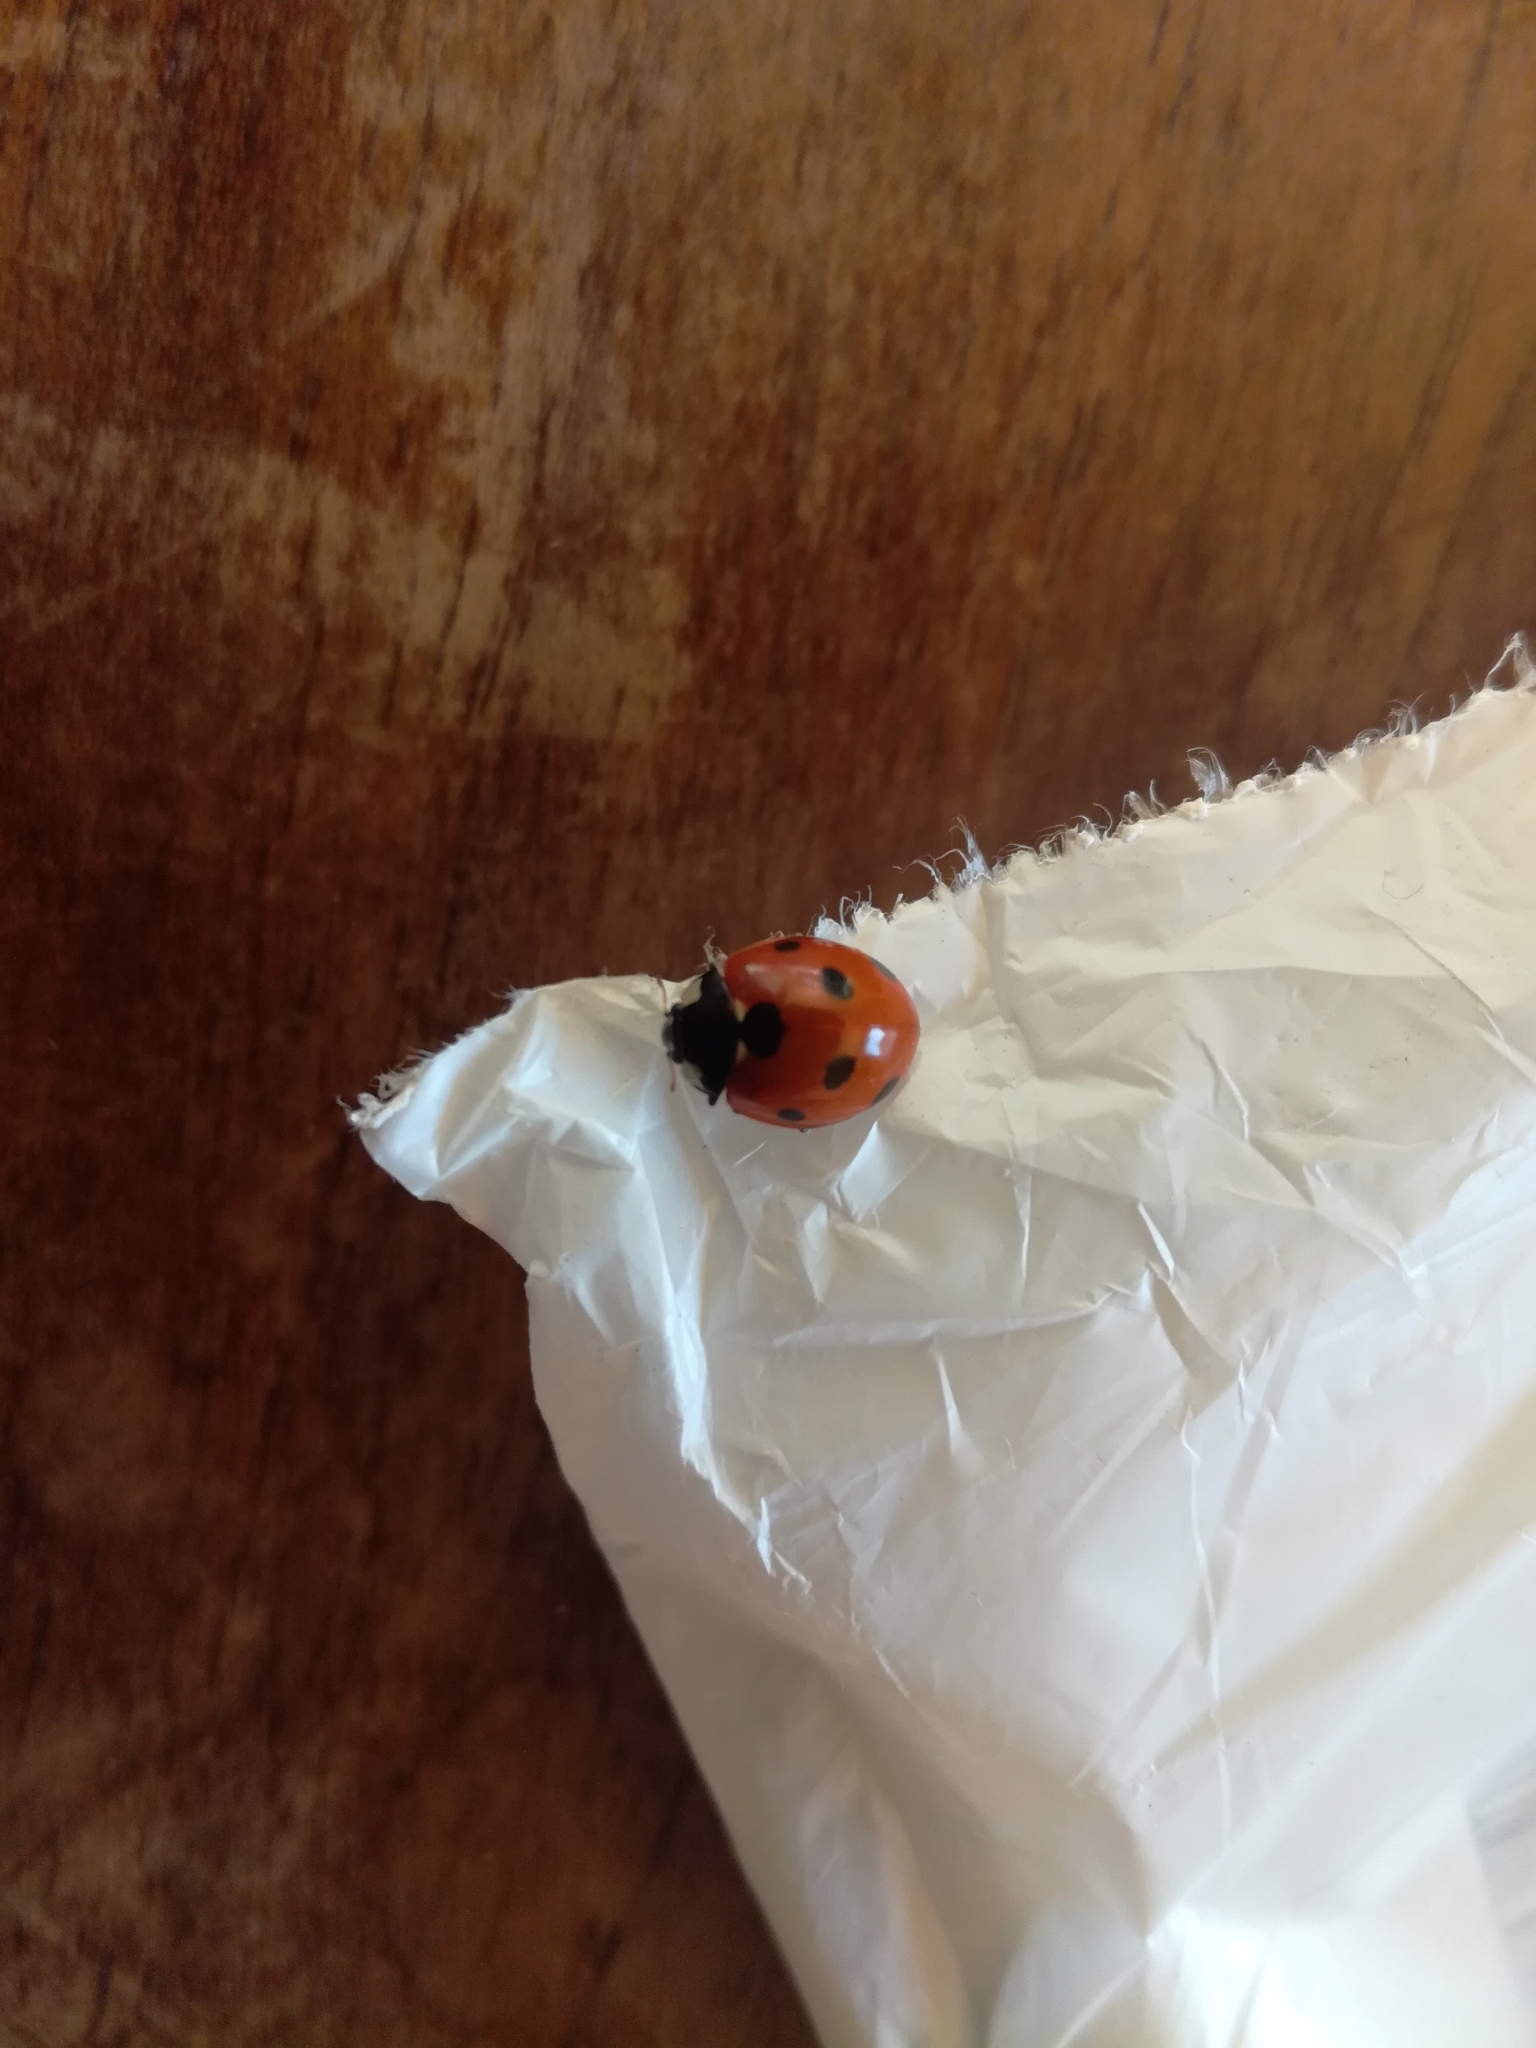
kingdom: Animalia
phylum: Arthropoda
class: Insecta
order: Coleoptera
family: Coccinellidae
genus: Coccinella
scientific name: Coccinella septempunctata
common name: Sevenspotted lady beetle
